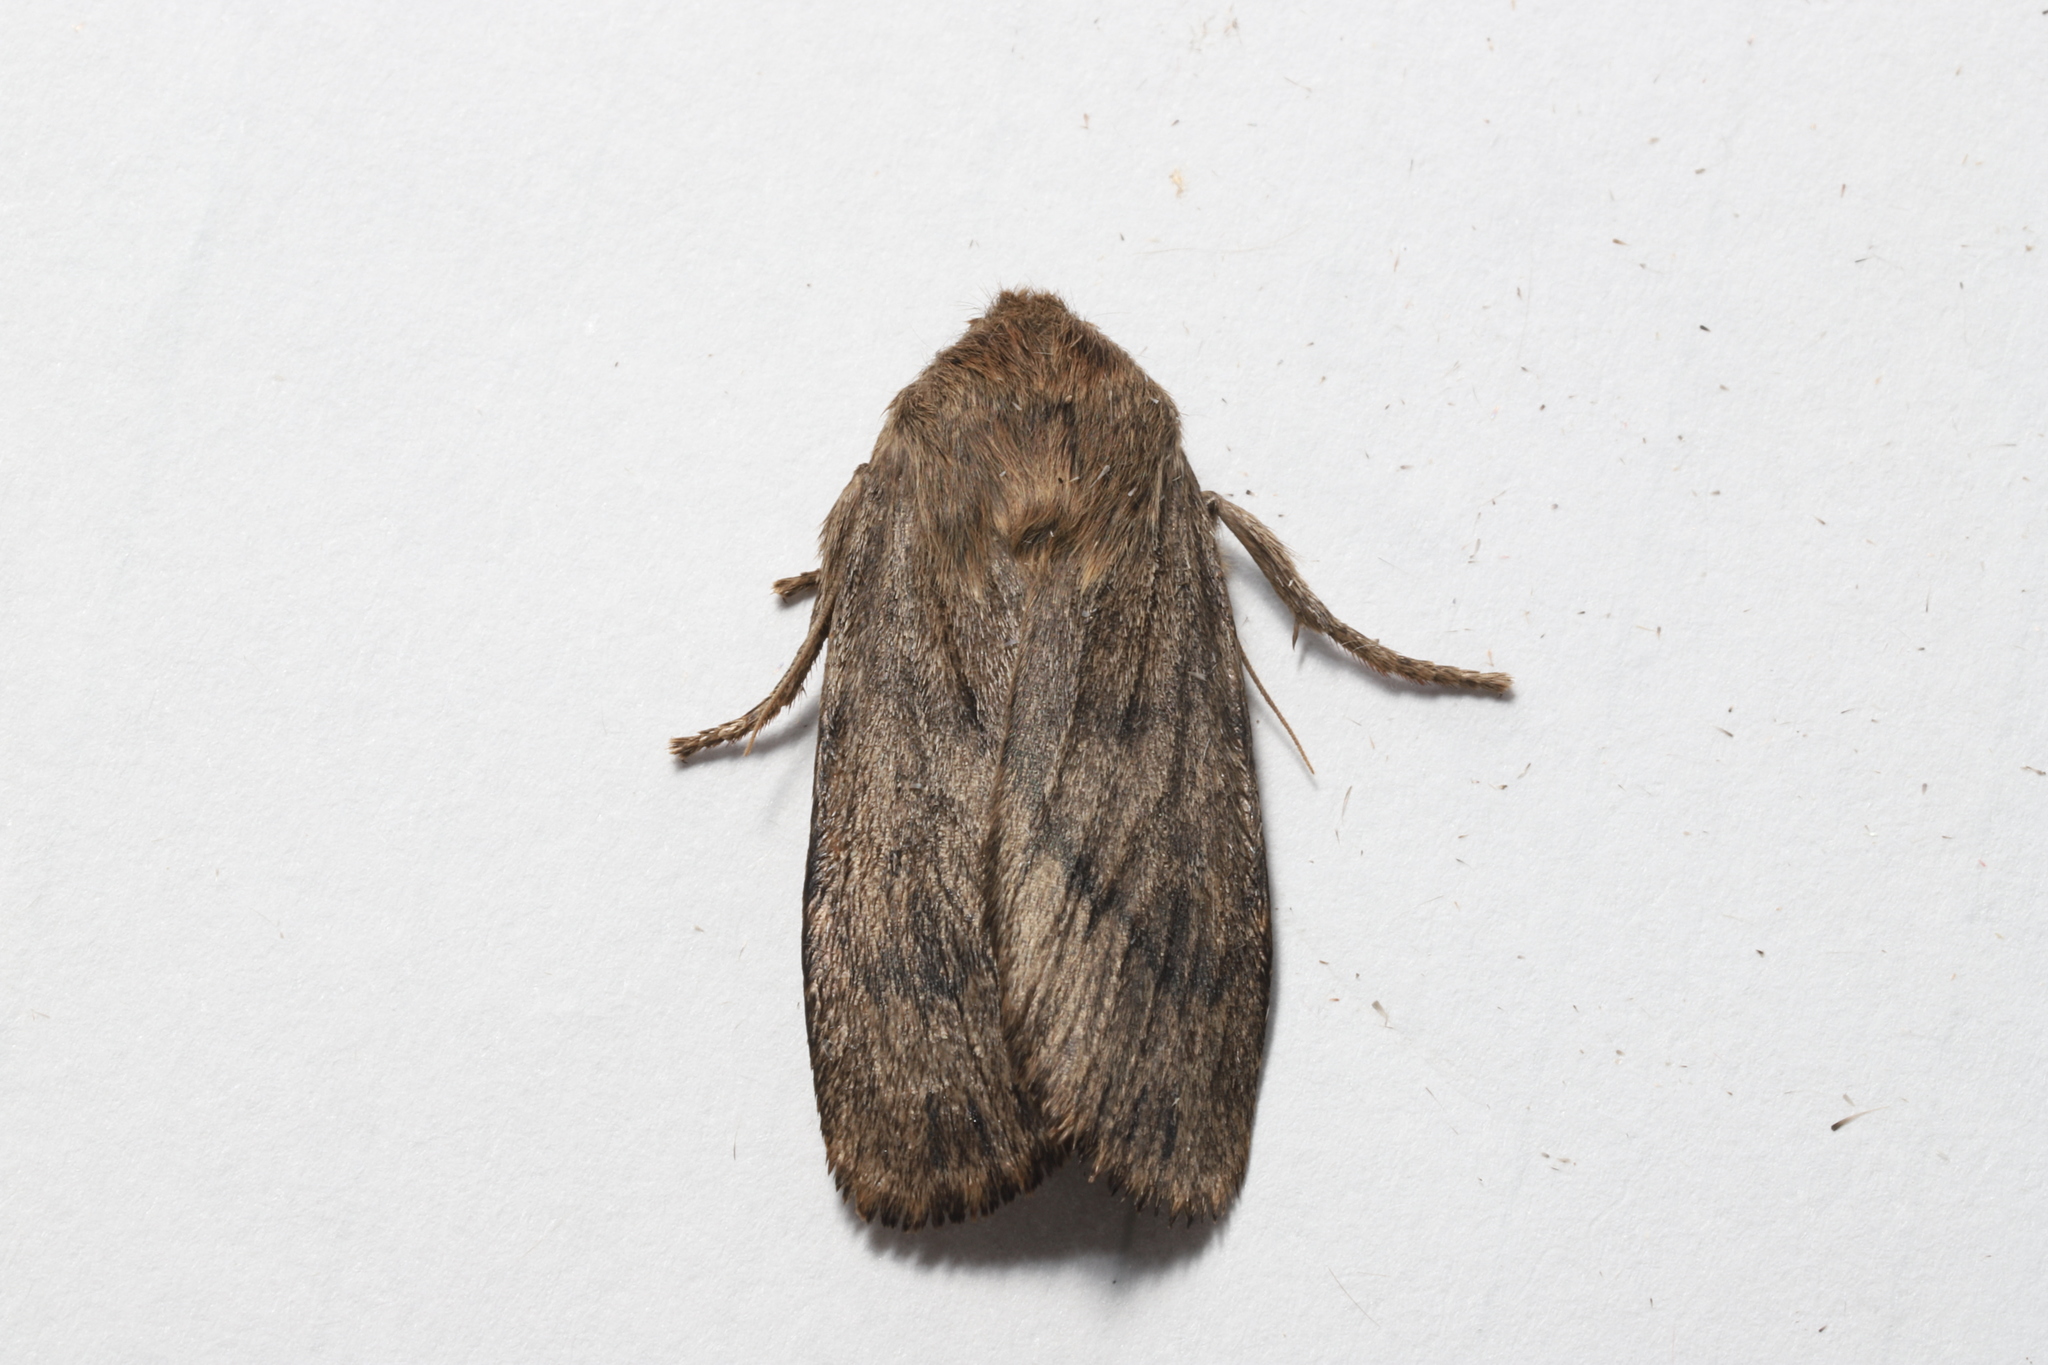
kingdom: Animalia
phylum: Arthropoda
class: Insecta
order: Lepidoptera
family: Noctuidae
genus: Ufeus
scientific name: Ufeus satyricus
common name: Brown satyr moth
